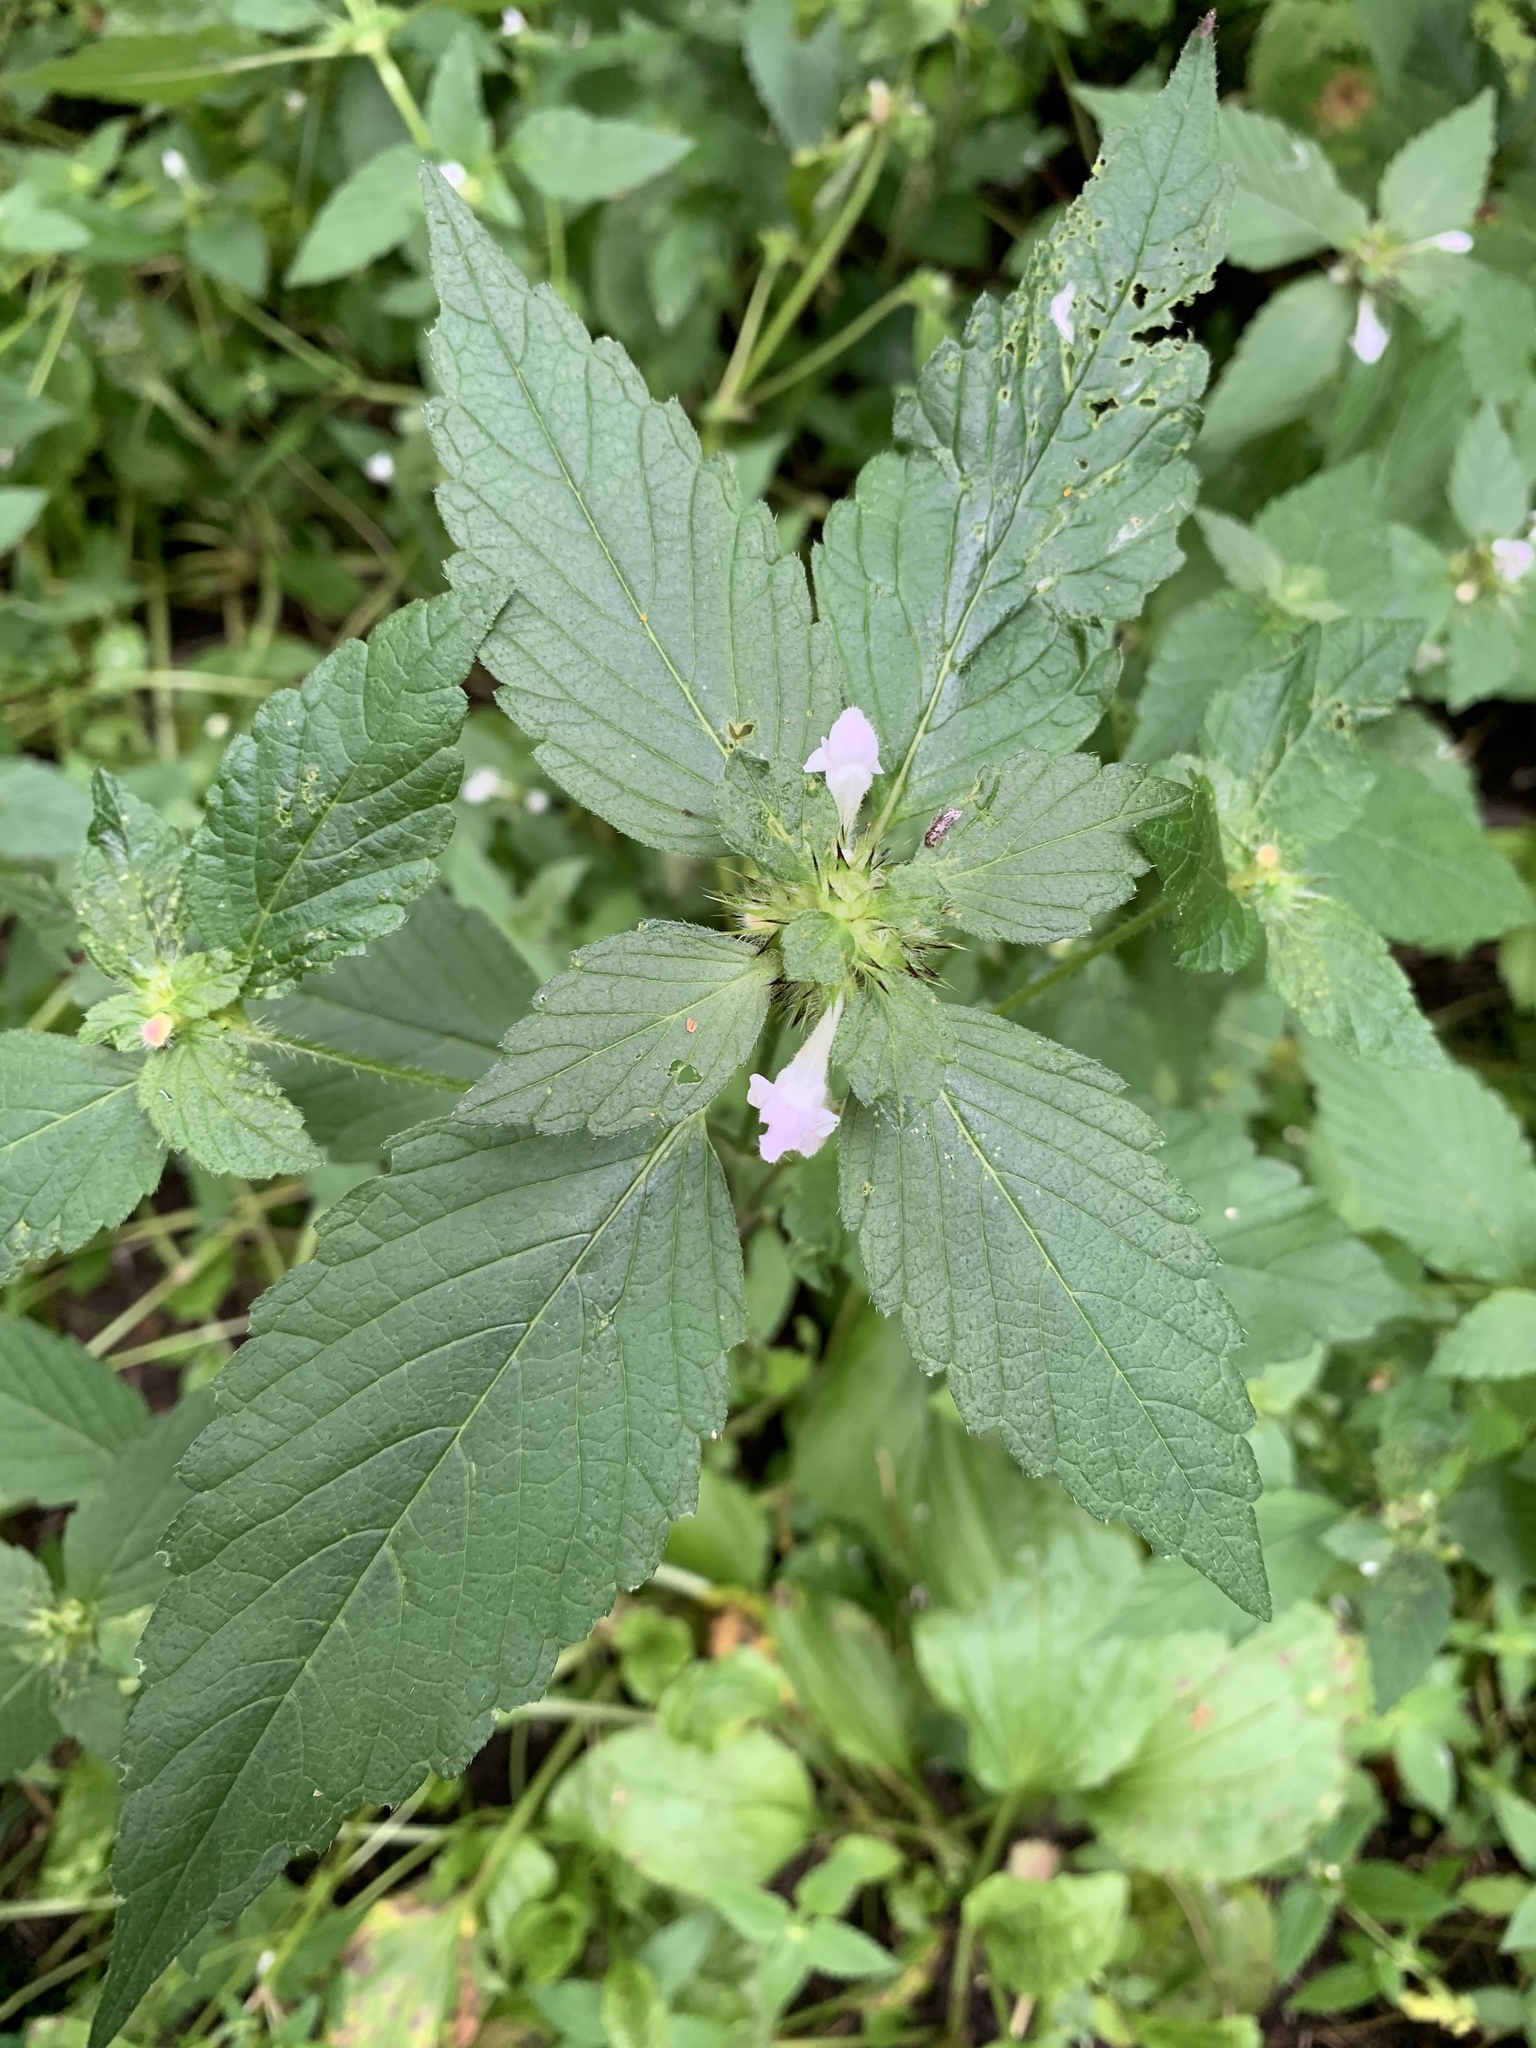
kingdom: Plantae
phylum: Tracheophyta
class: Magnoliopsida
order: Lamiales
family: Lamiaceae
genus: Galeopsis
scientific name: Galeopsis tetrahit
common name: Common hemp-nettle
